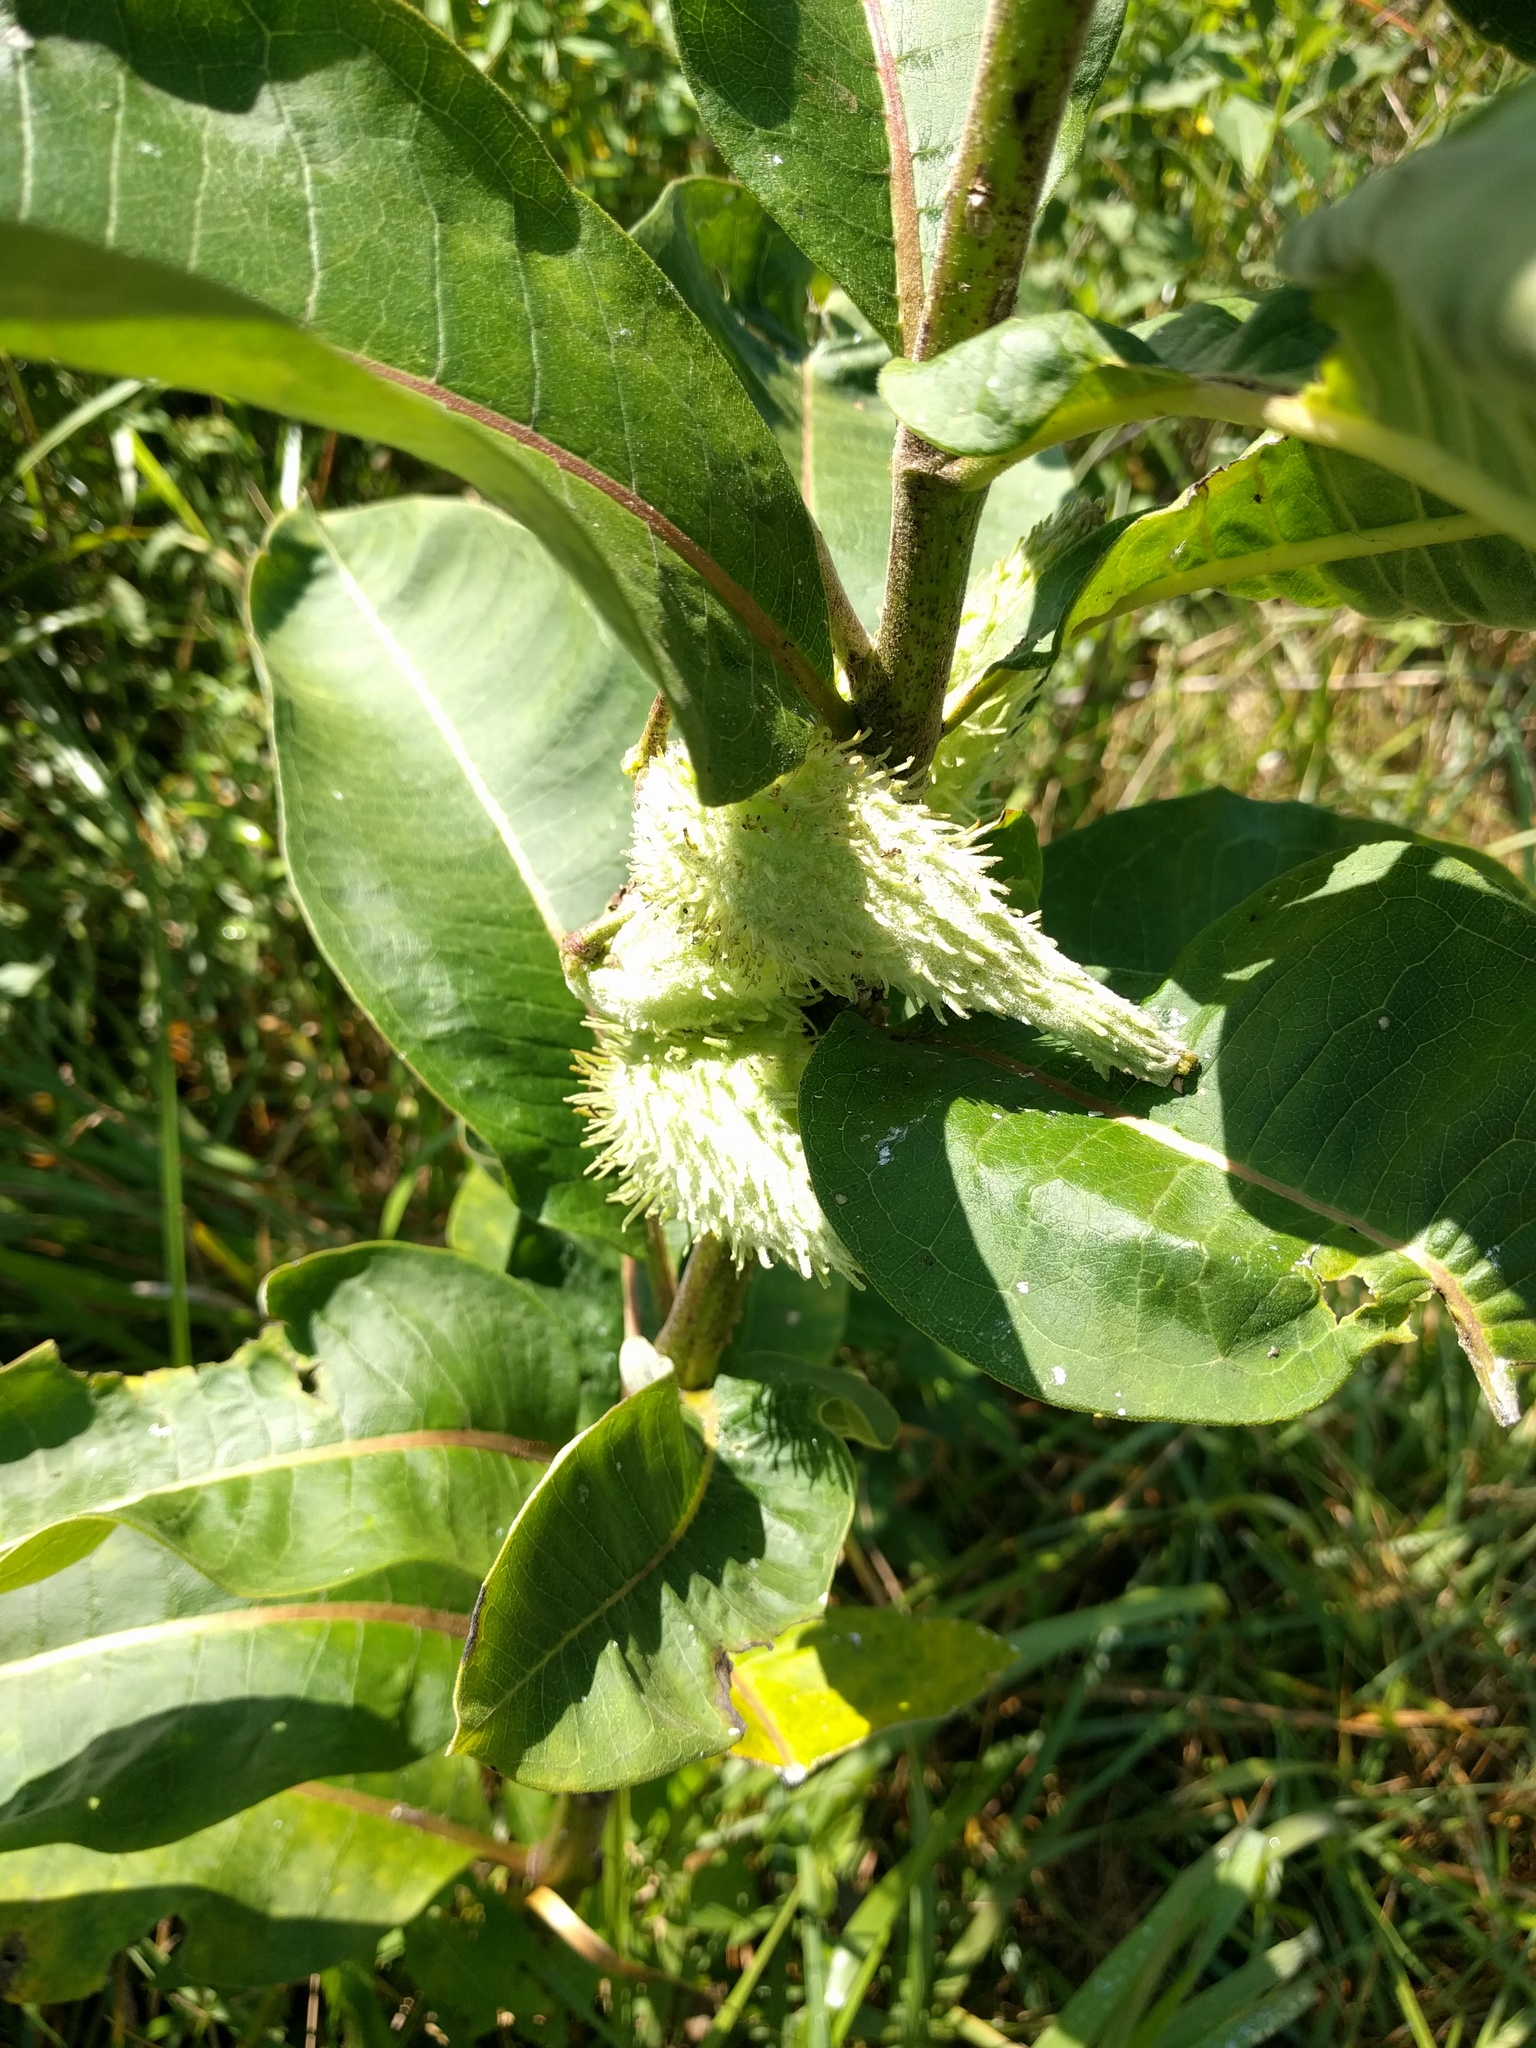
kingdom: Plantae
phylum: Tracheophyta
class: Magnoliopsida
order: Gentianales
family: Apocynaceae
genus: Asclepias
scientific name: Asclepias syriaca
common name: Common milkweed
